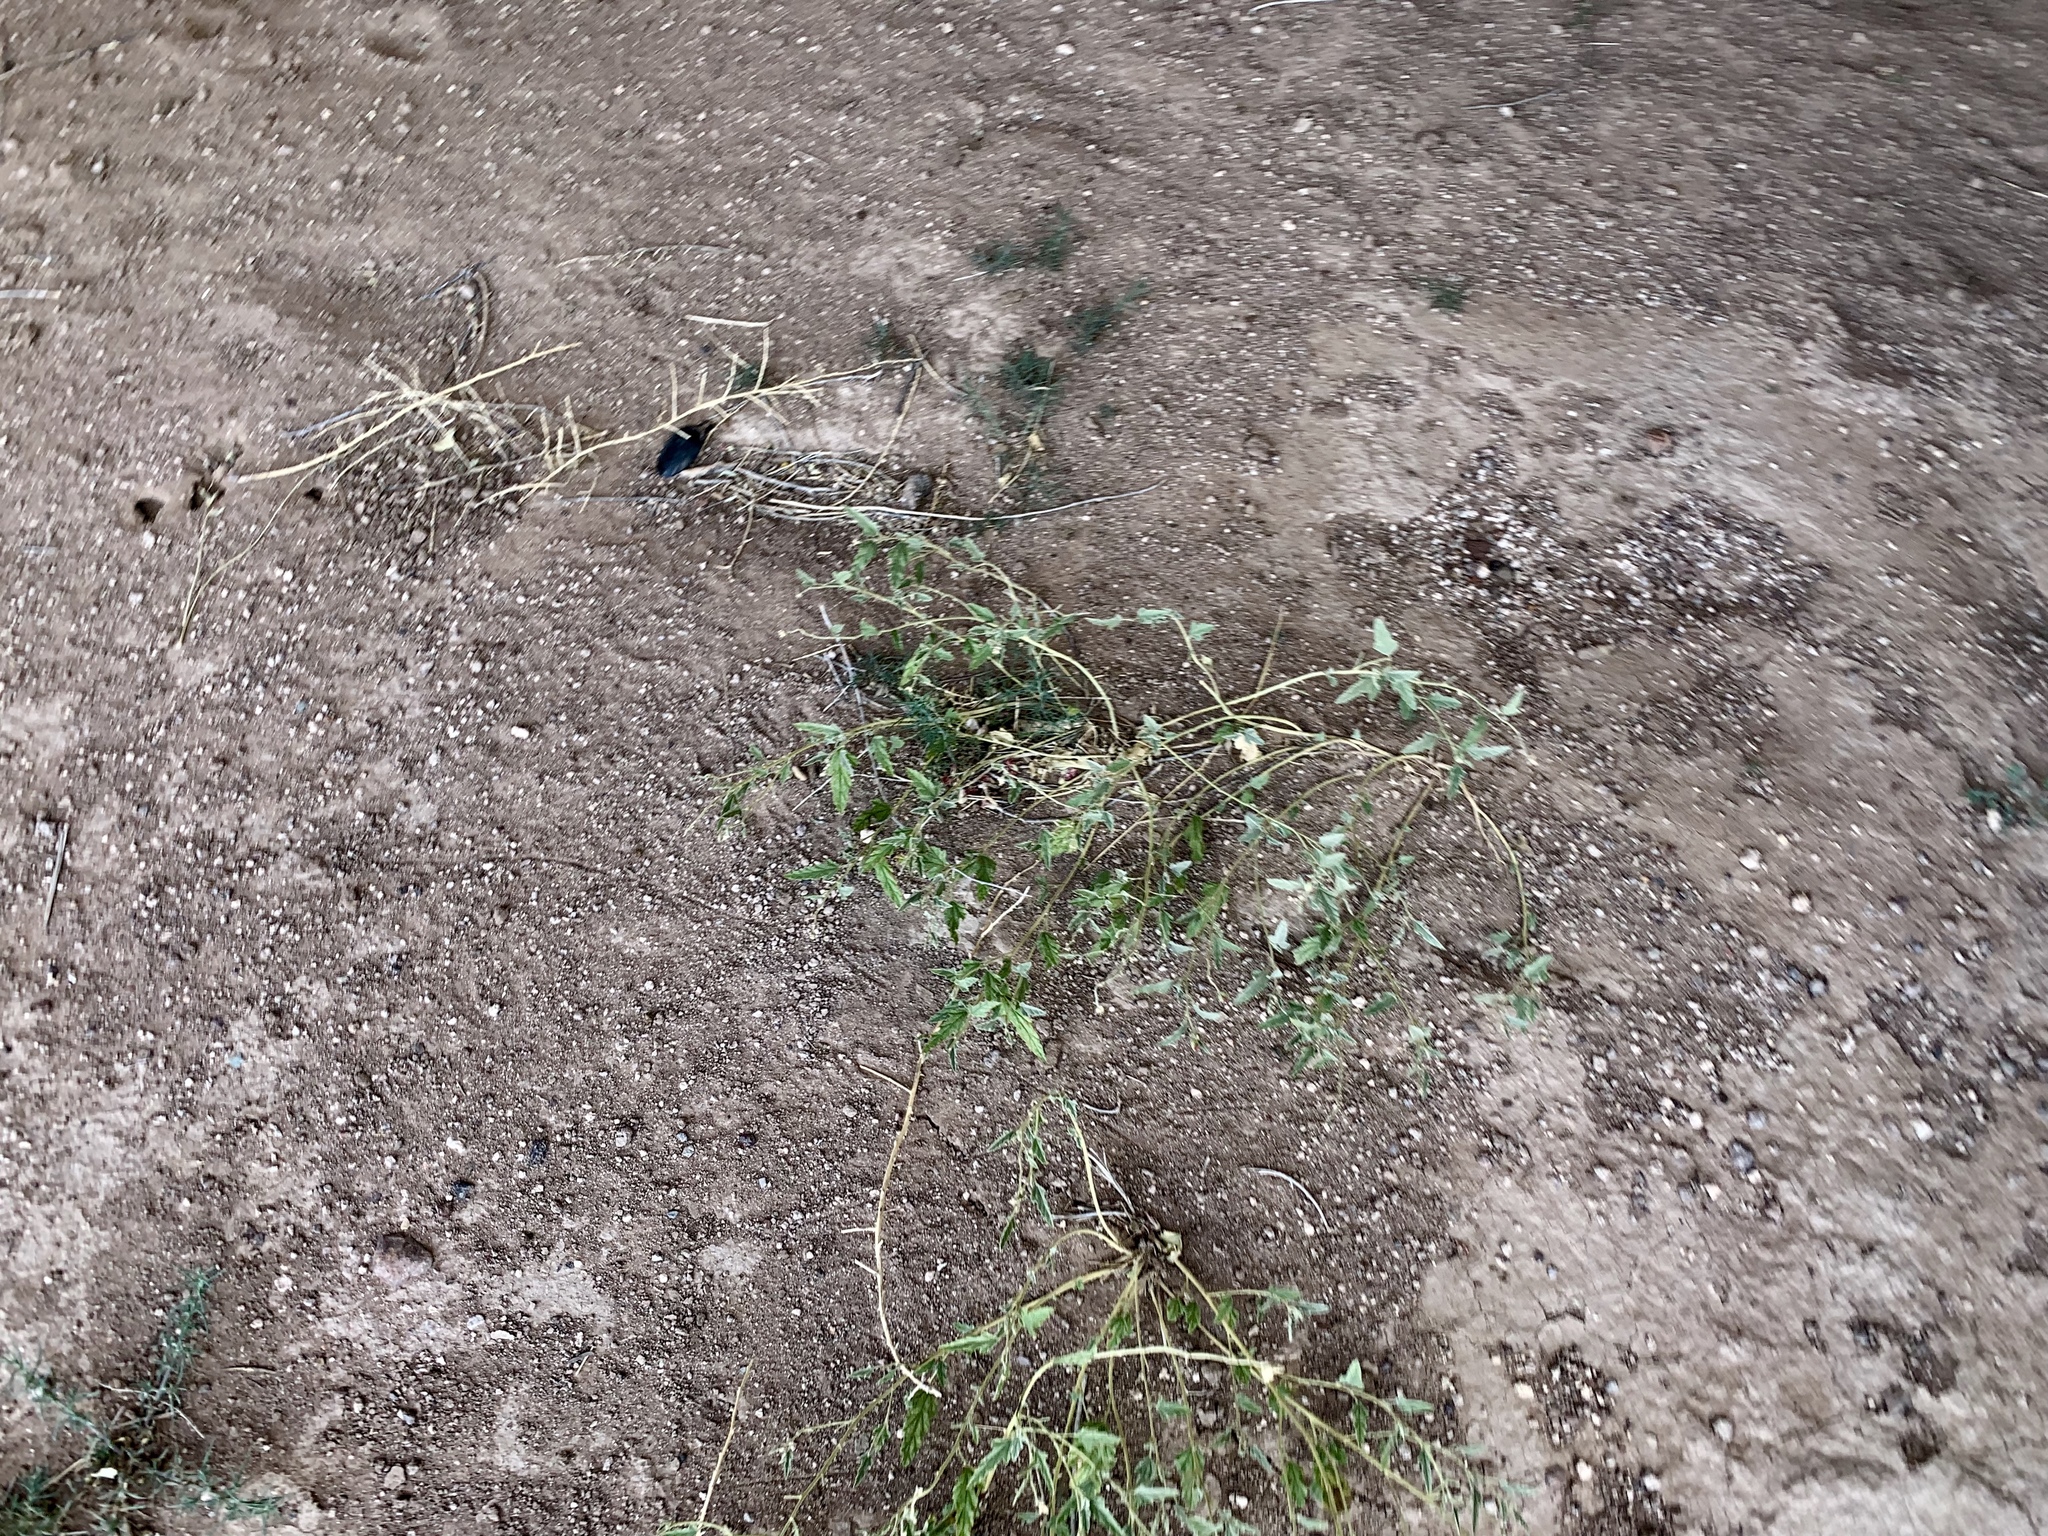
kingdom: Plantae
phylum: Tracheophyta
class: Magnoliopsida
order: Malvales
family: Malvaceae
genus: Sphaeralcea
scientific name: Sphaeralcea hastulata
